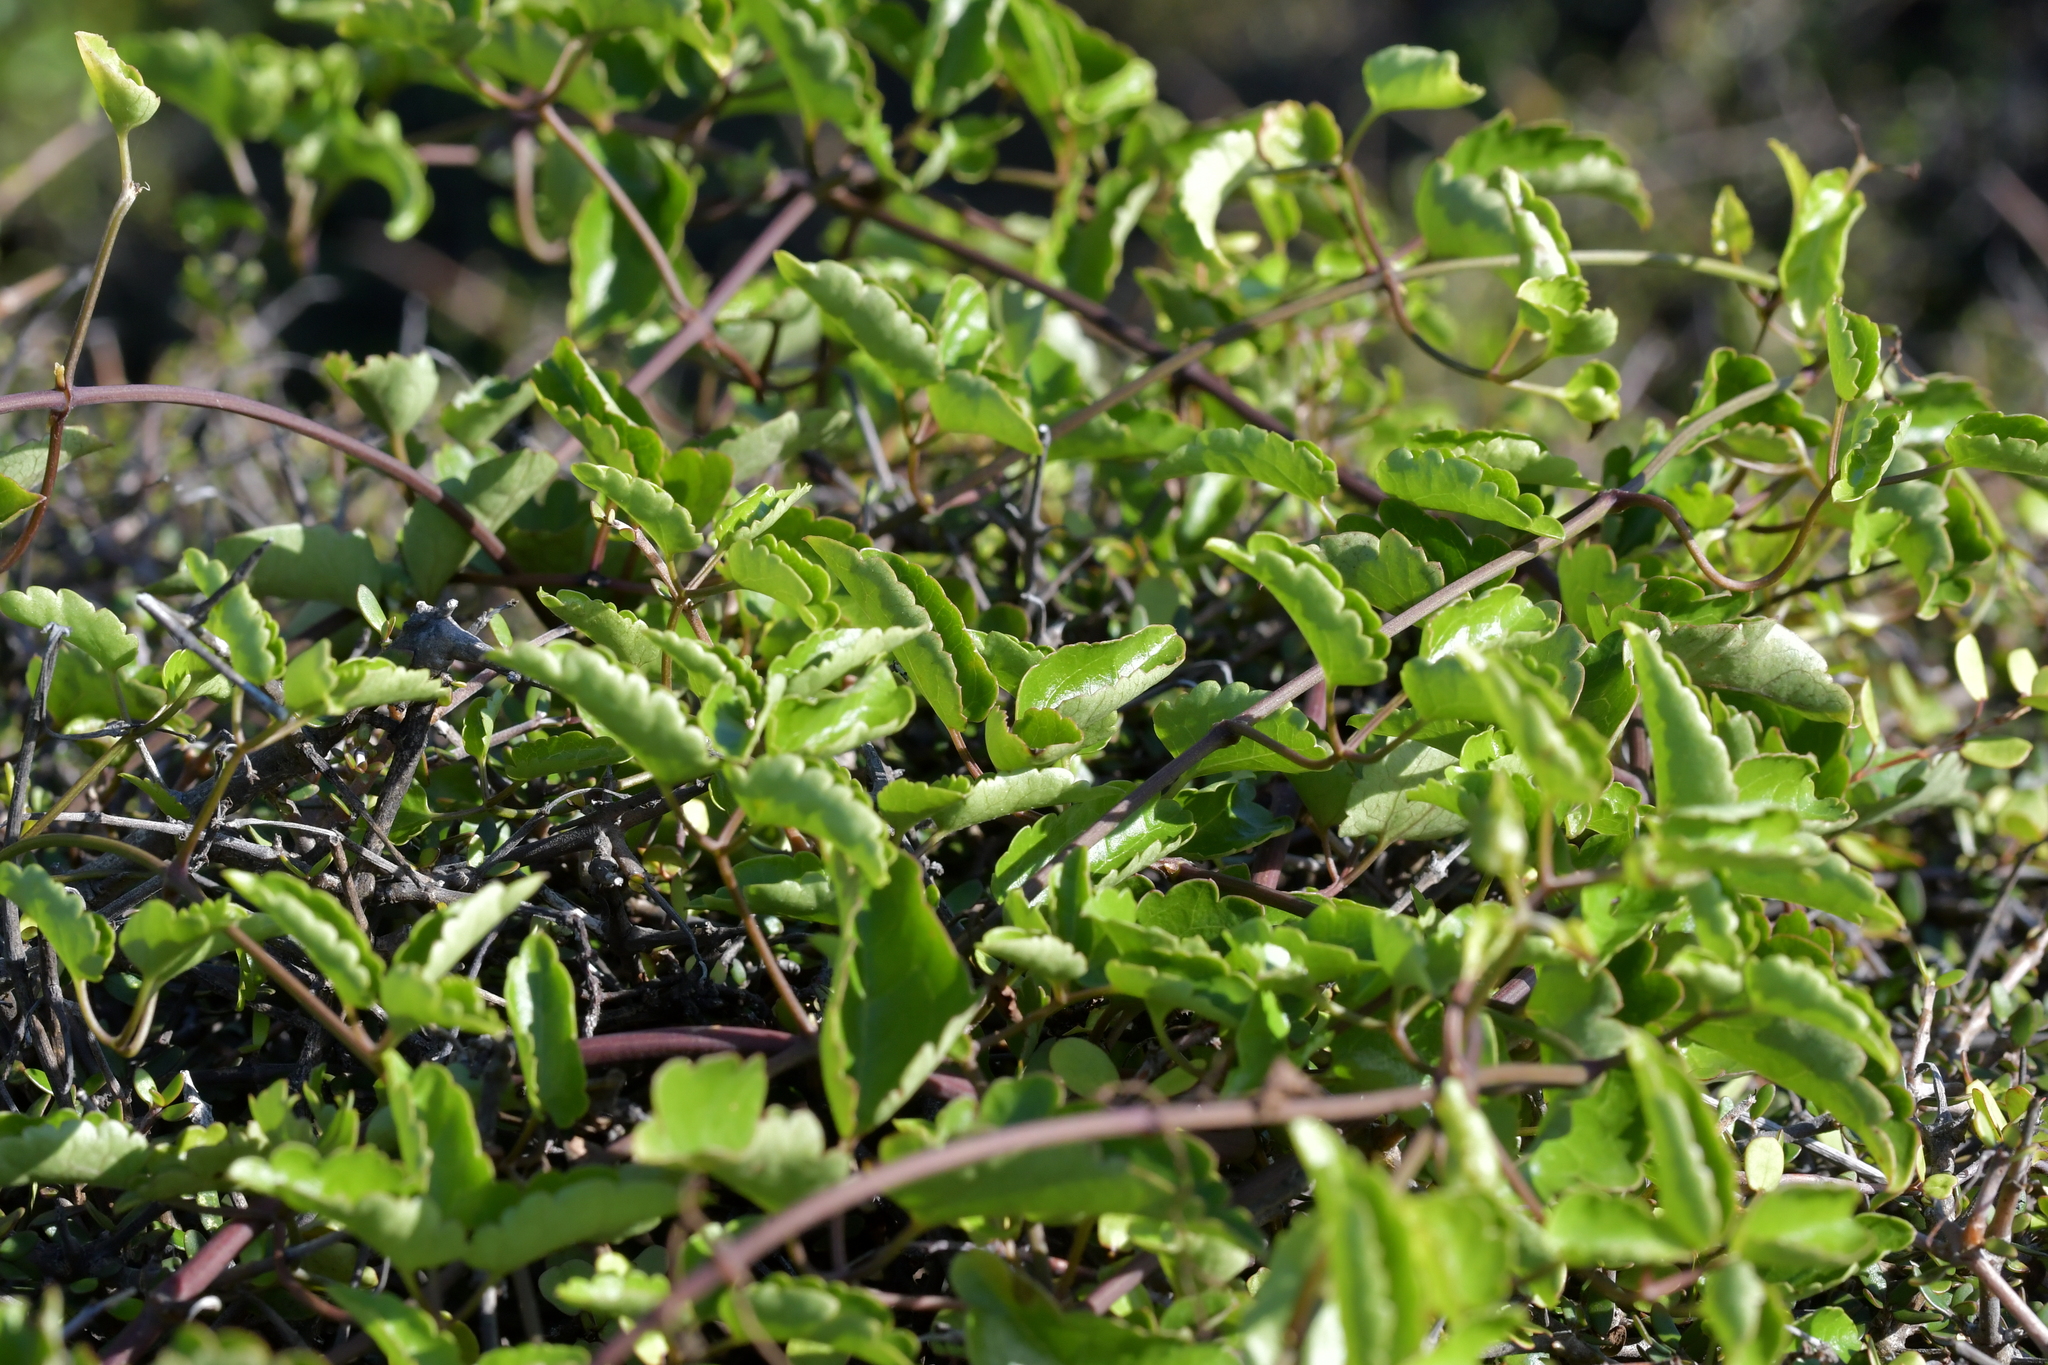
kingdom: Plantae
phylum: Tracheophyta
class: Magnoliopsida
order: Ranunculales
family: Ranunculaceae
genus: Clematis
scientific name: Clematis forsteri
